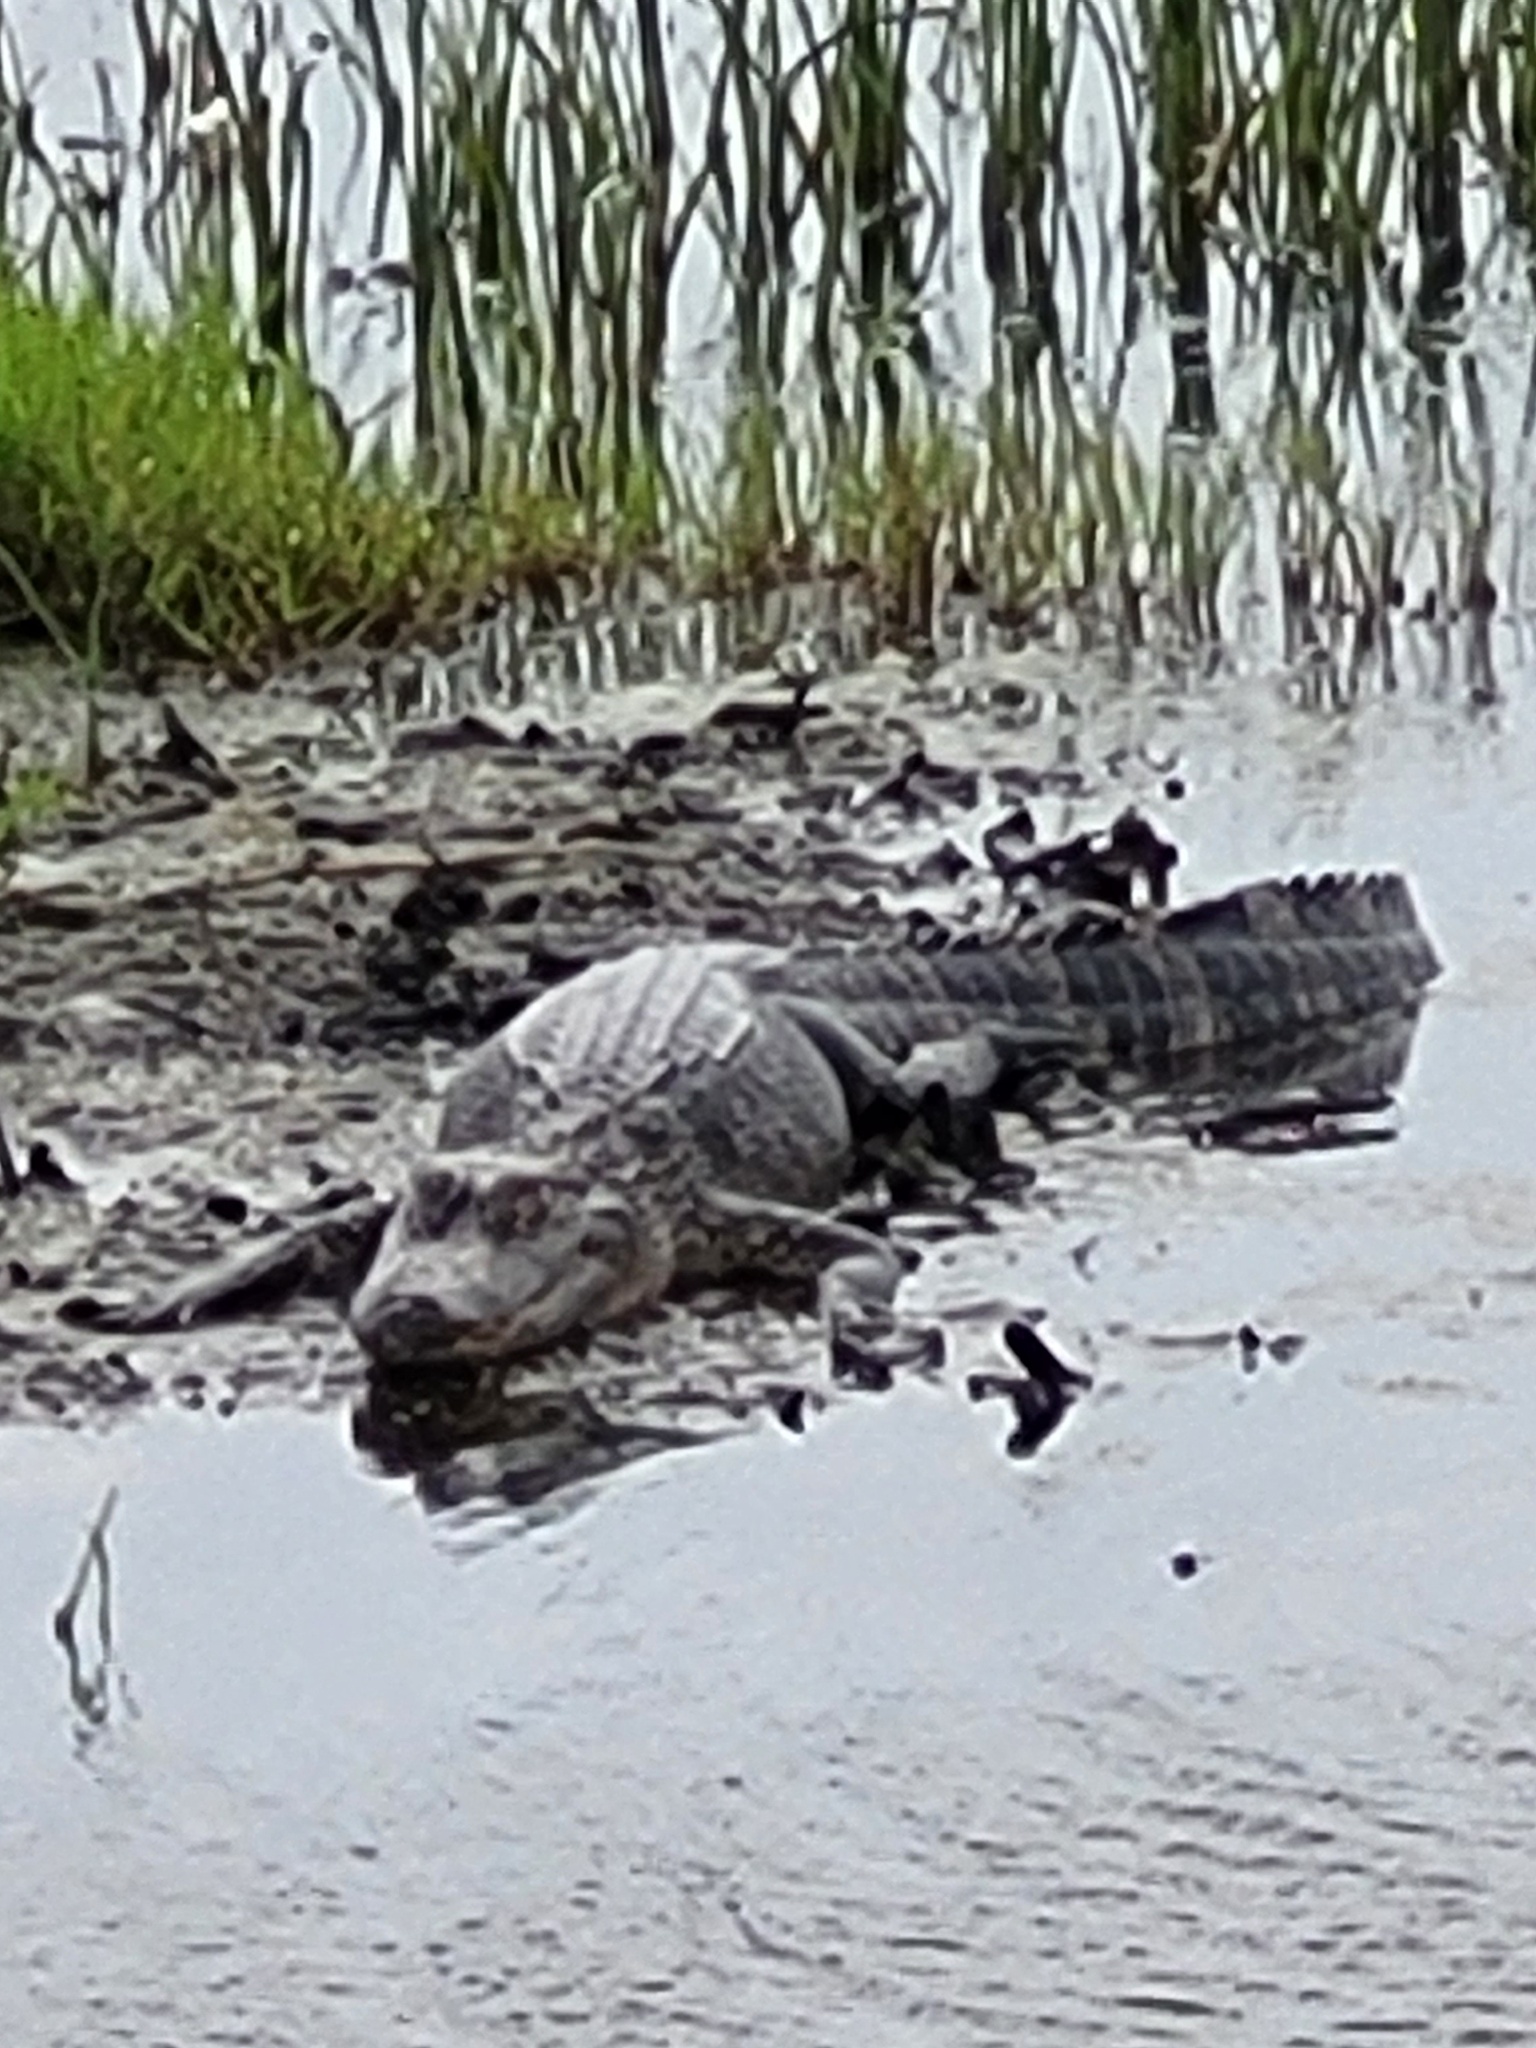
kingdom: Animalia
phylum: Chordata
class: Crocodylia
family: Alligatoridae
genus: Alligator
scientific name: Alligator mississippiensis
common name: American alligator
